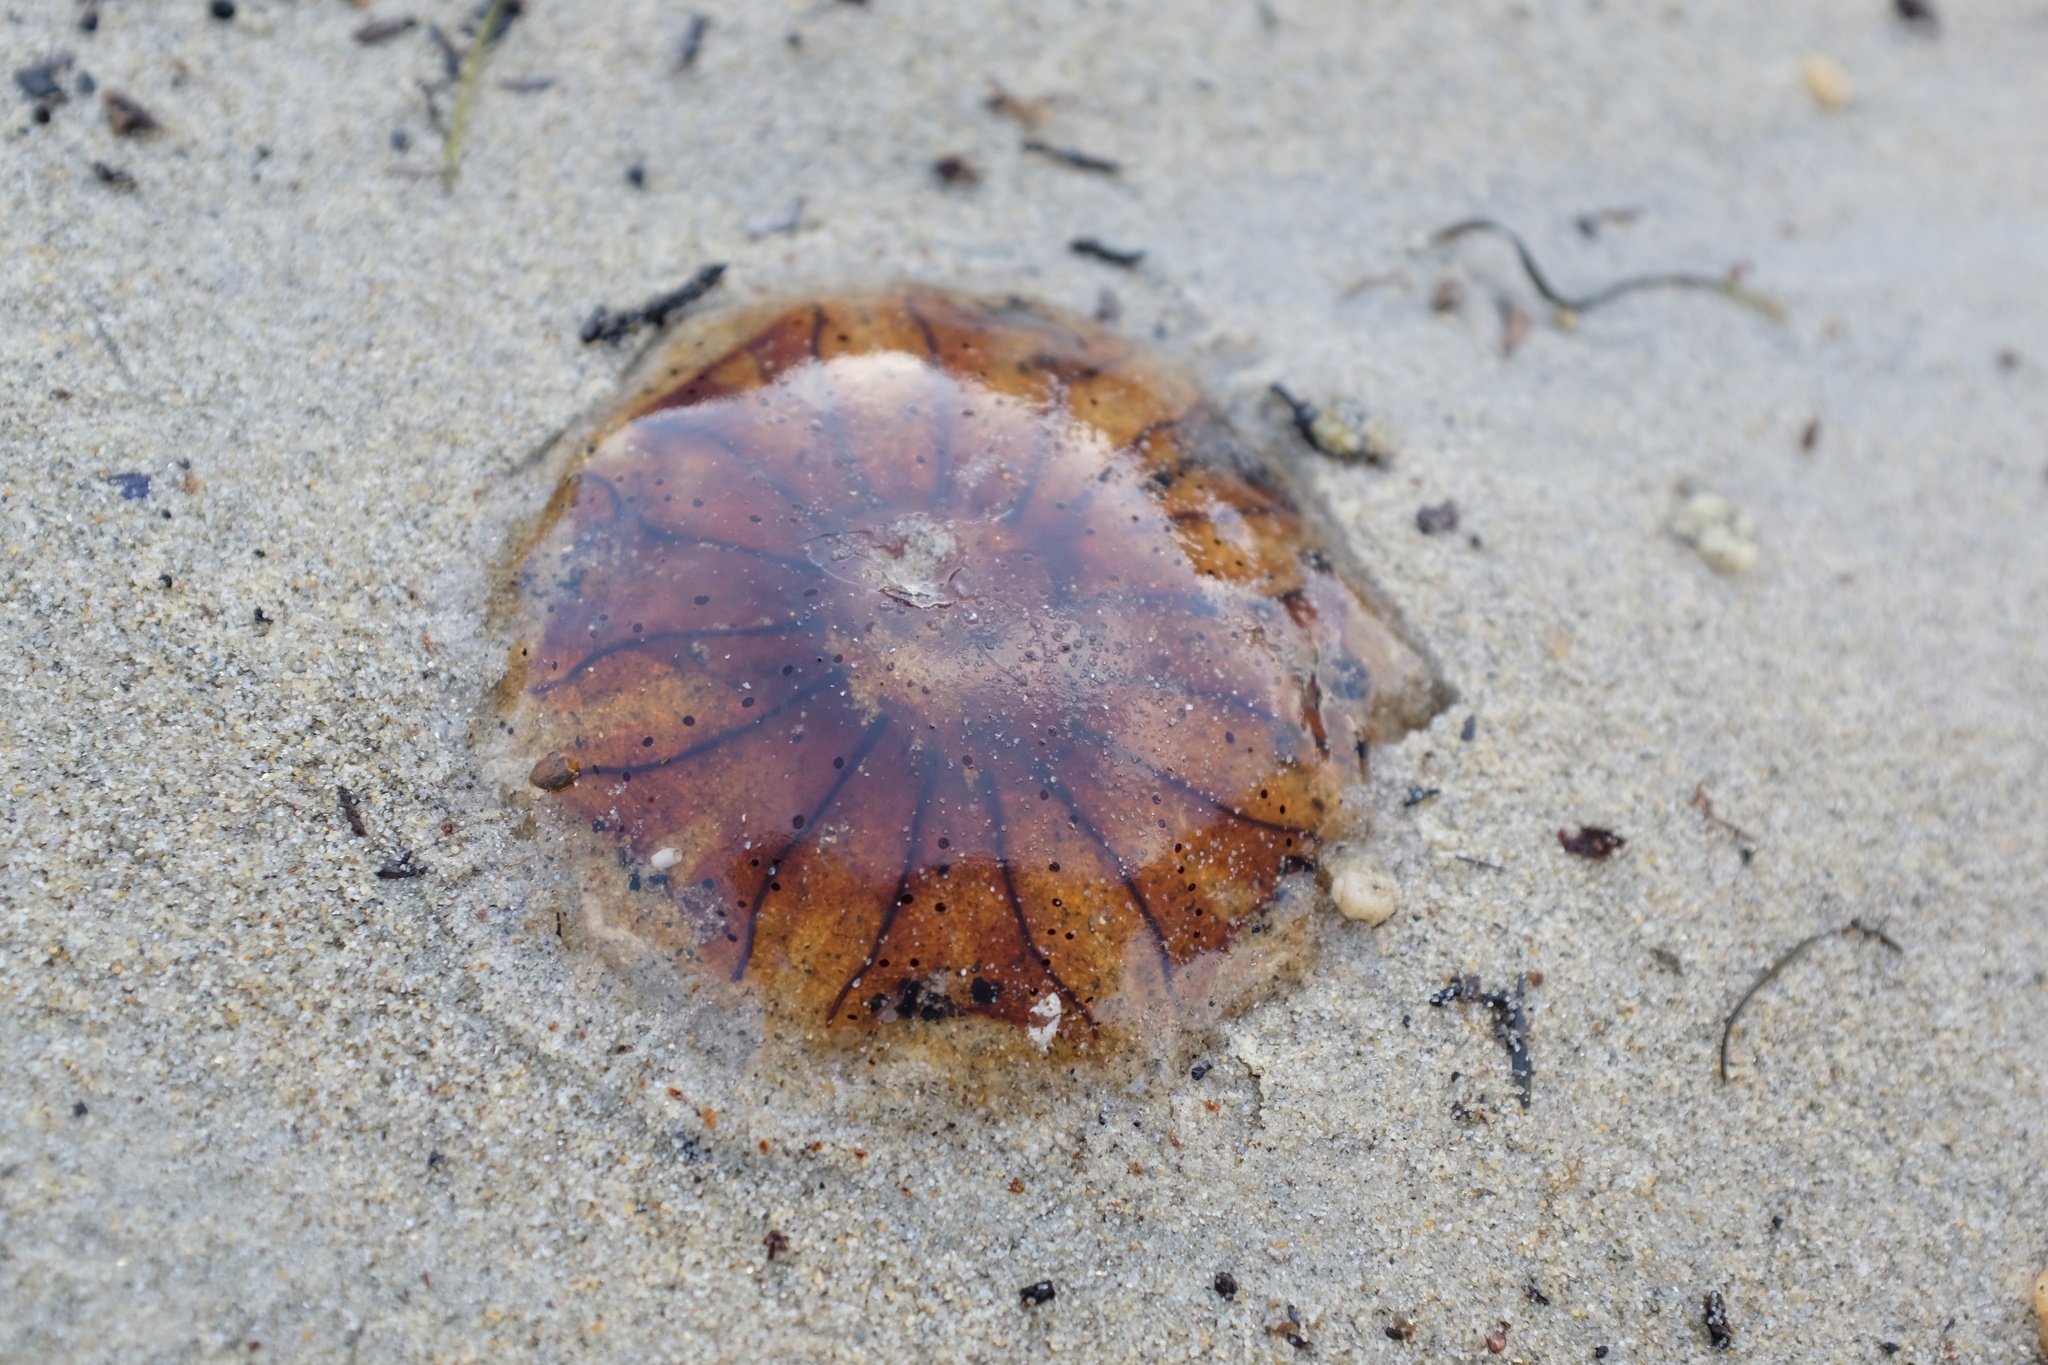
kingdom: Animalia
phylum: Cnidaria
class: Scyphozoa
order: Semaeostomeae
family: Cyaneidae
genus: Desmonema
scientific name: Desmonema gaudichaudi
